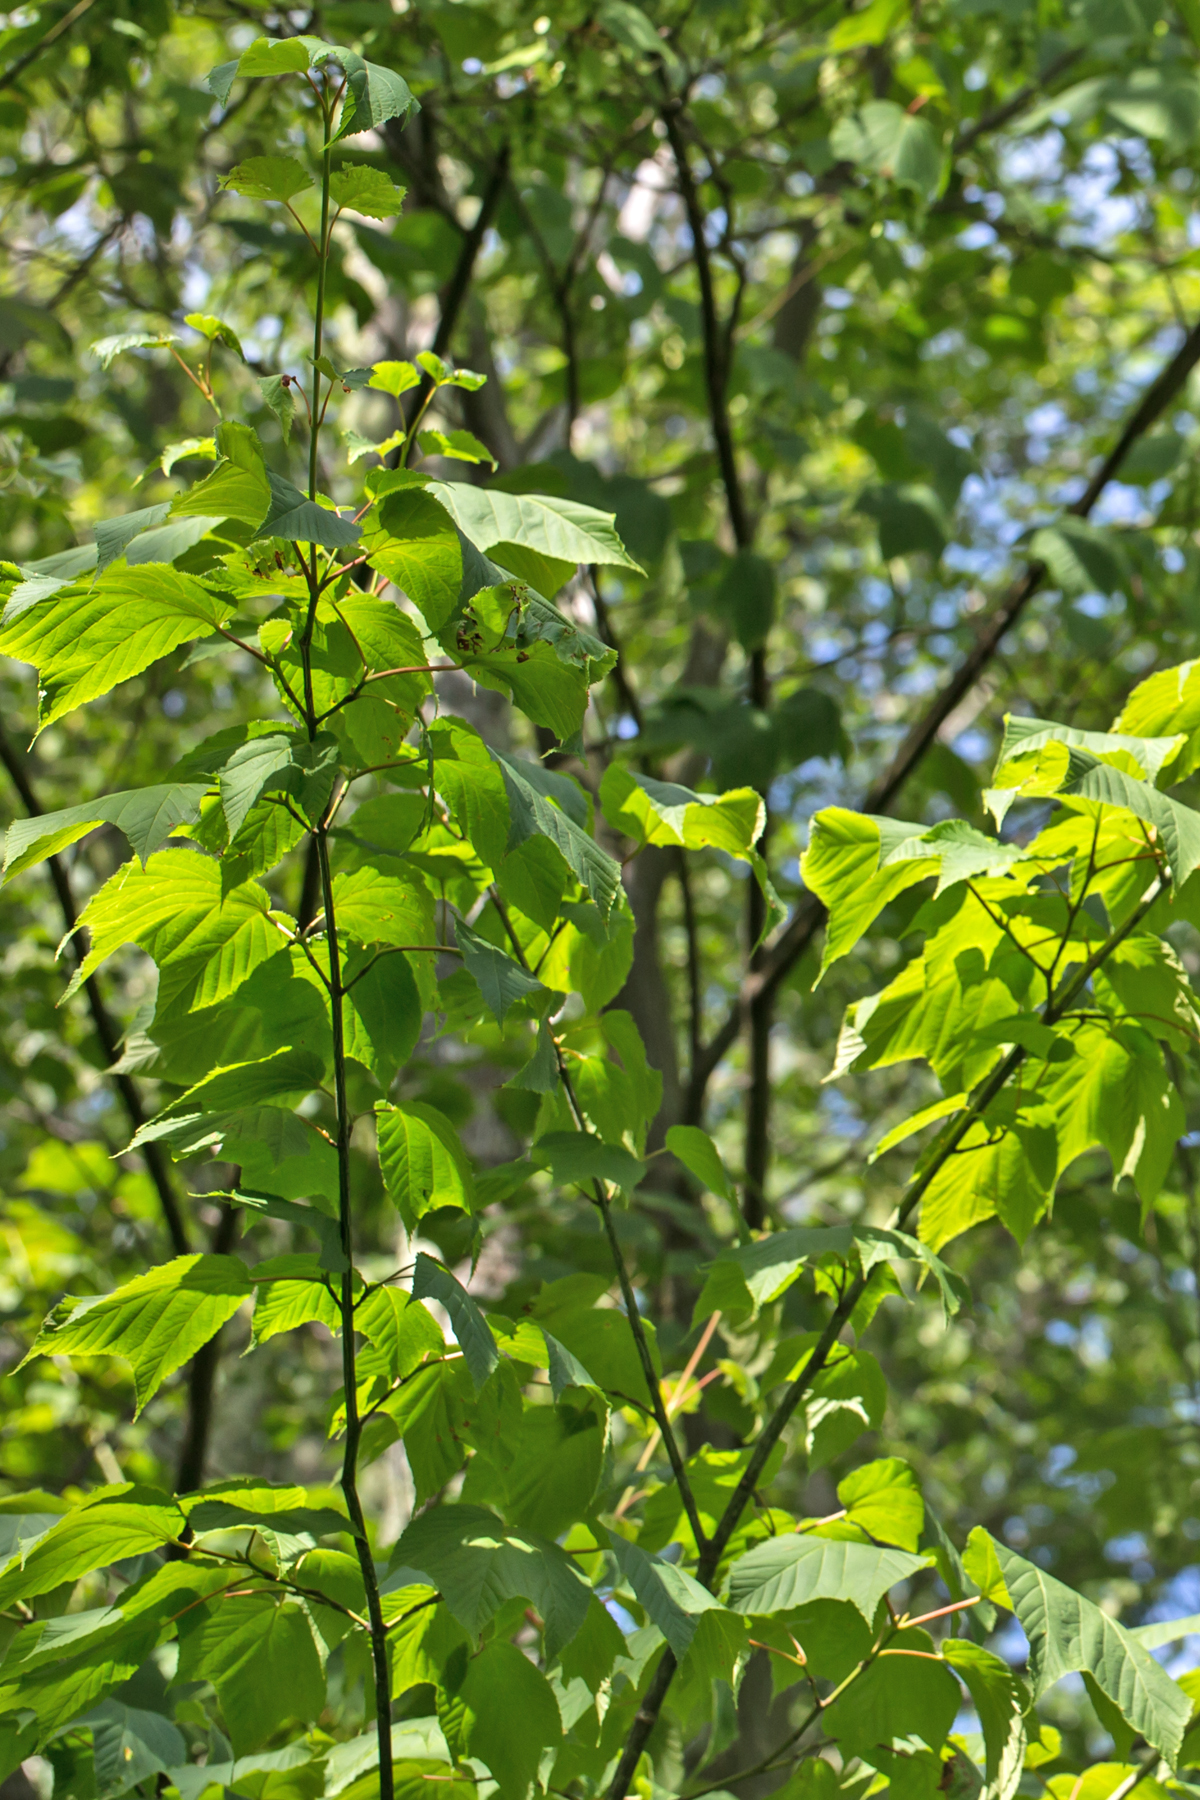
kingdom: Plantae
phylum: Tracheophyta
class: Magnoliopsida
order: Sapindales
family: Sapindaceae
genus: Acer
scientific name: Acer pensylvanicum
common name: Moosewood
